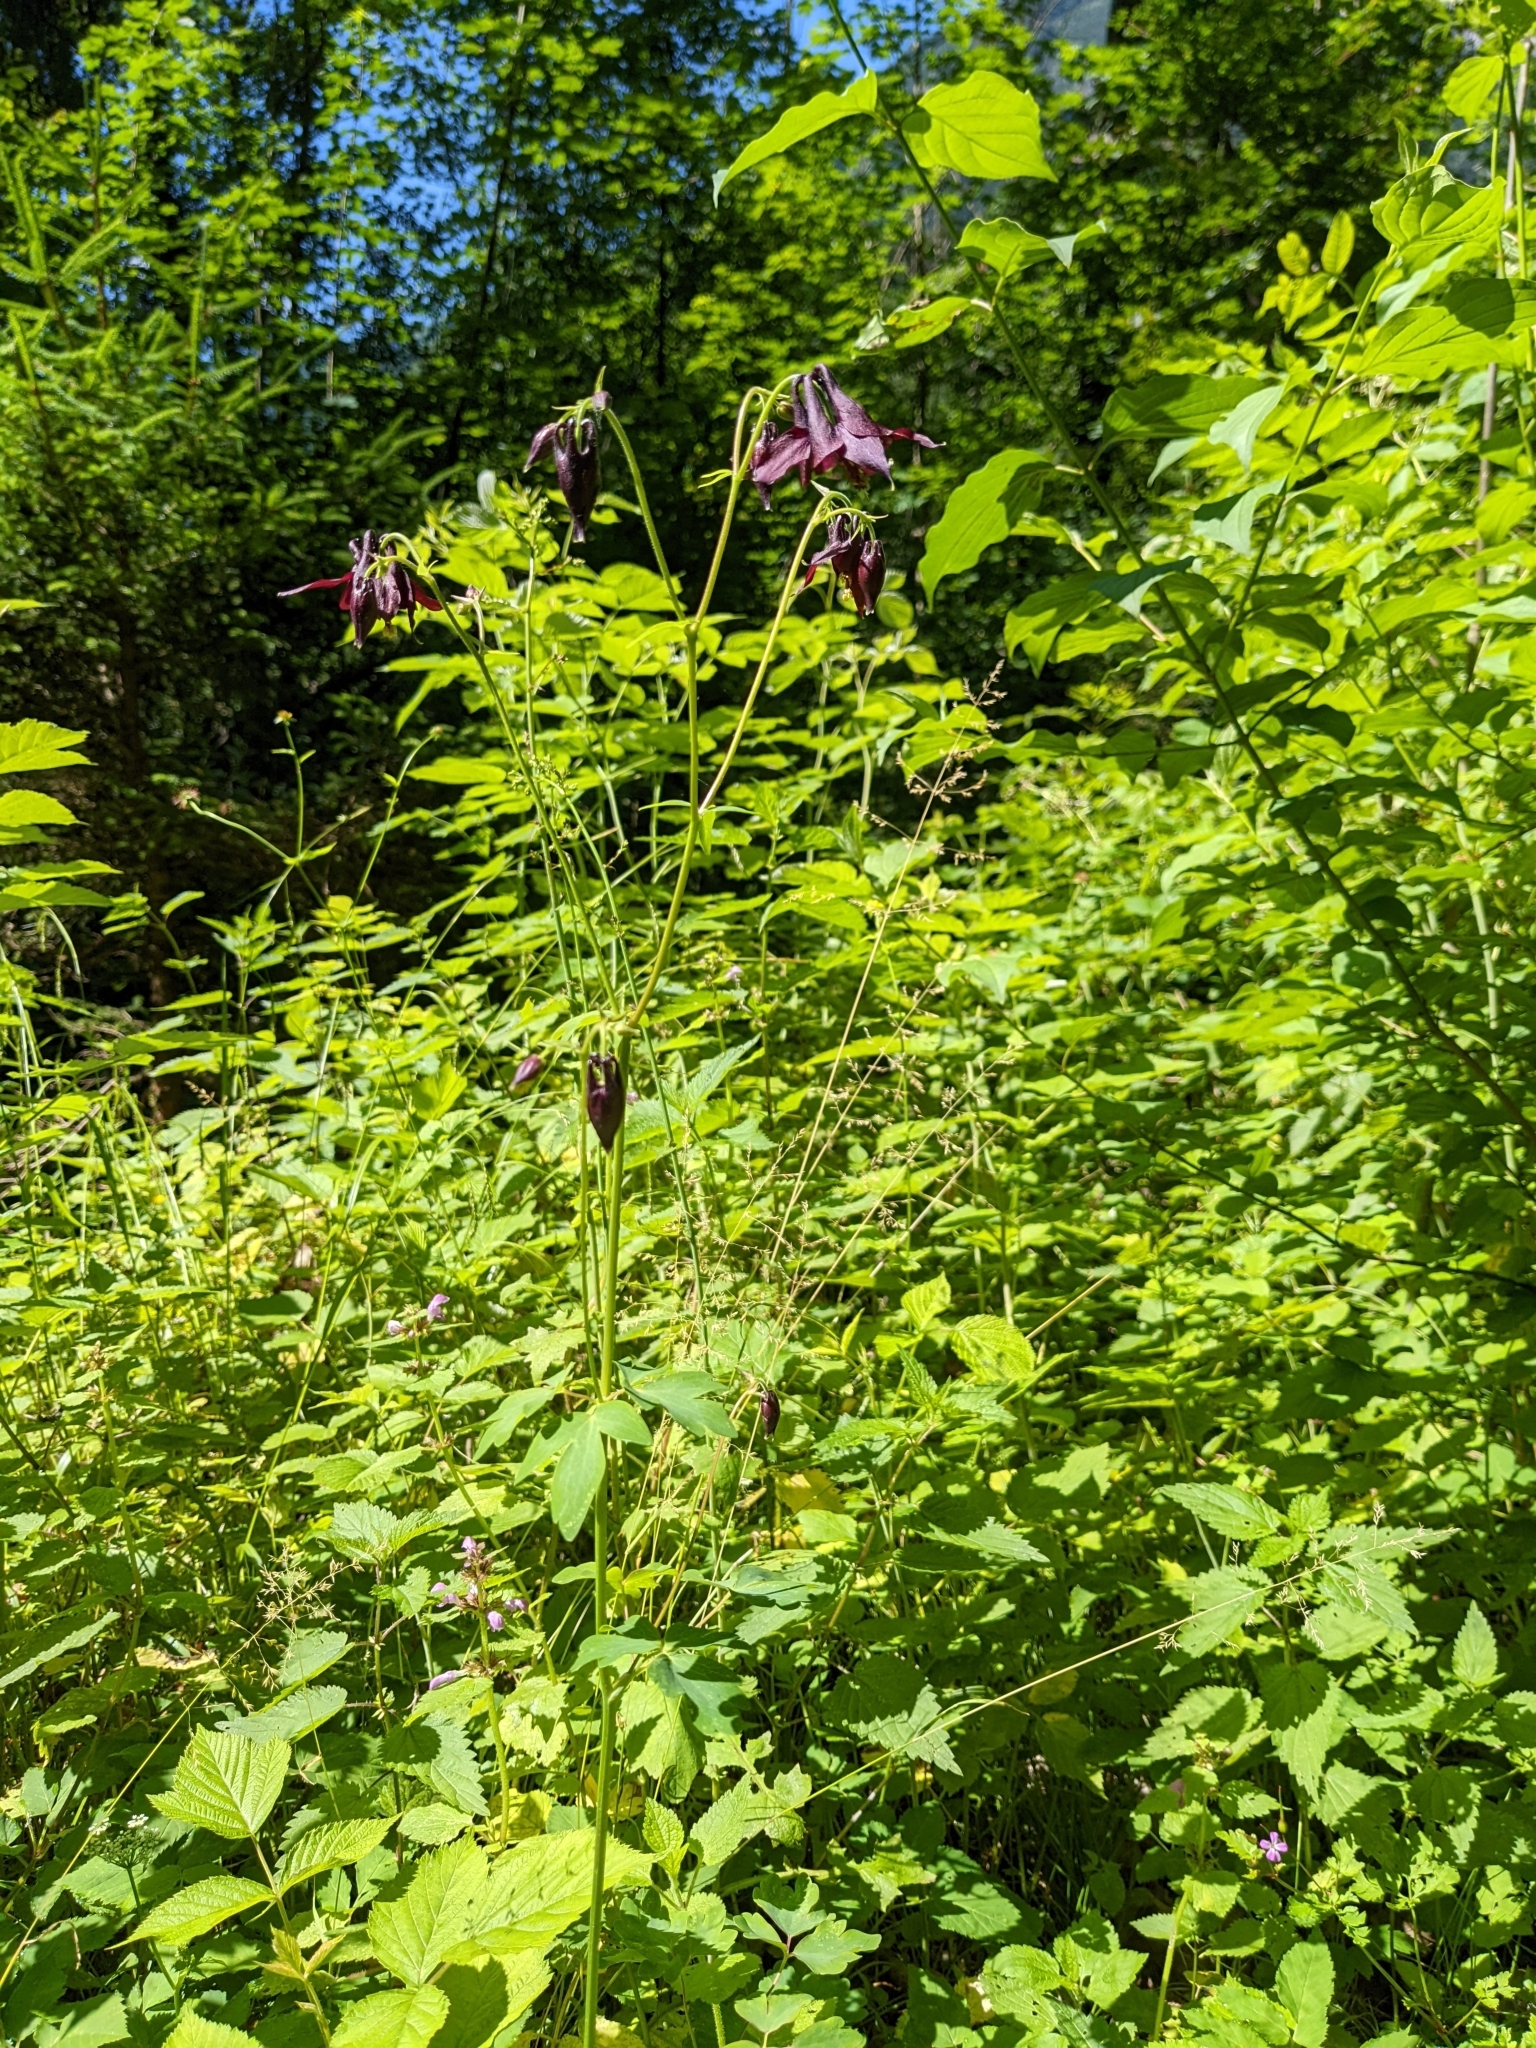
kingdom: Plantae
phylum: Tracheophyta
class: Magnoliopsida
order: Ranunculales
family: Ranunculaceae
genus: Aquilegia
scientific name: Aquilegia atrata
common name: Dark columbine
